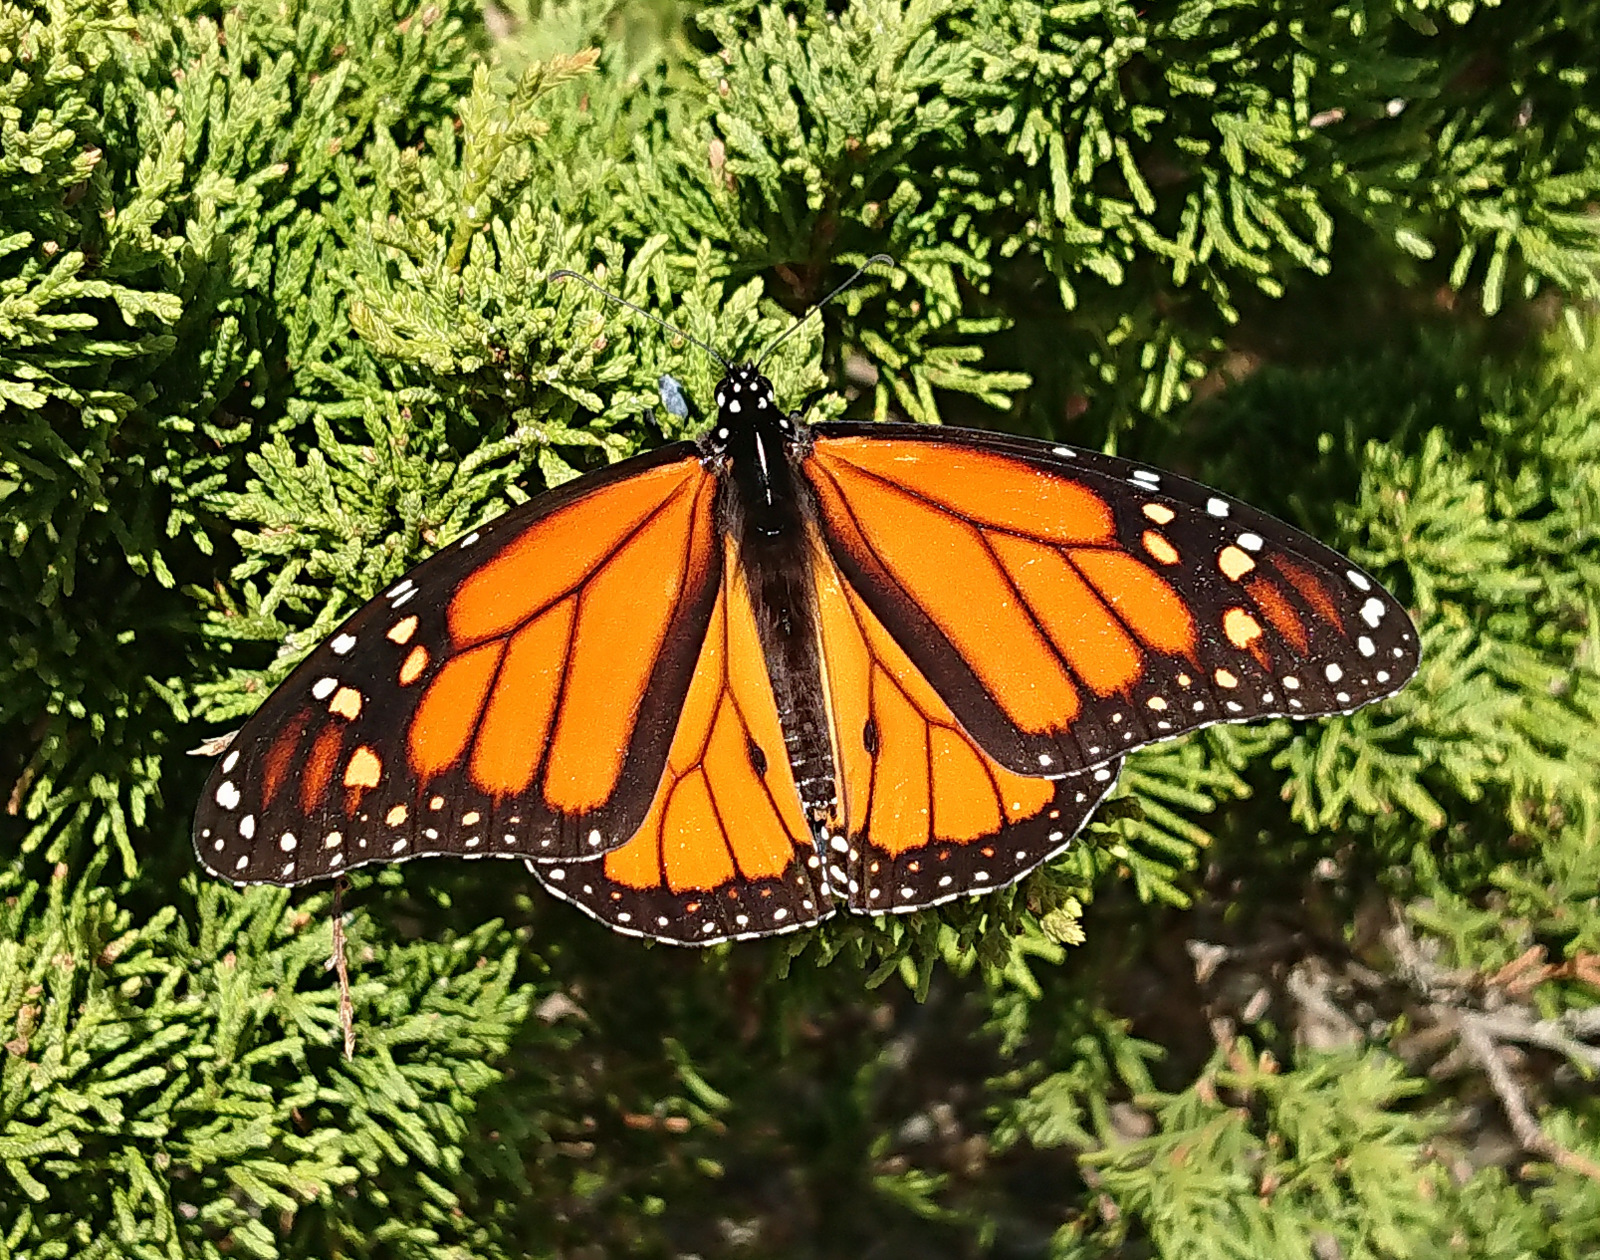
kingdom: Animalia
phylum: Arthropoda
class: Insecta
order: Lepidoptera
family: Nymphalidae
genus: Danaus
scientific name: Danaus plexippus
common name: Monarch
